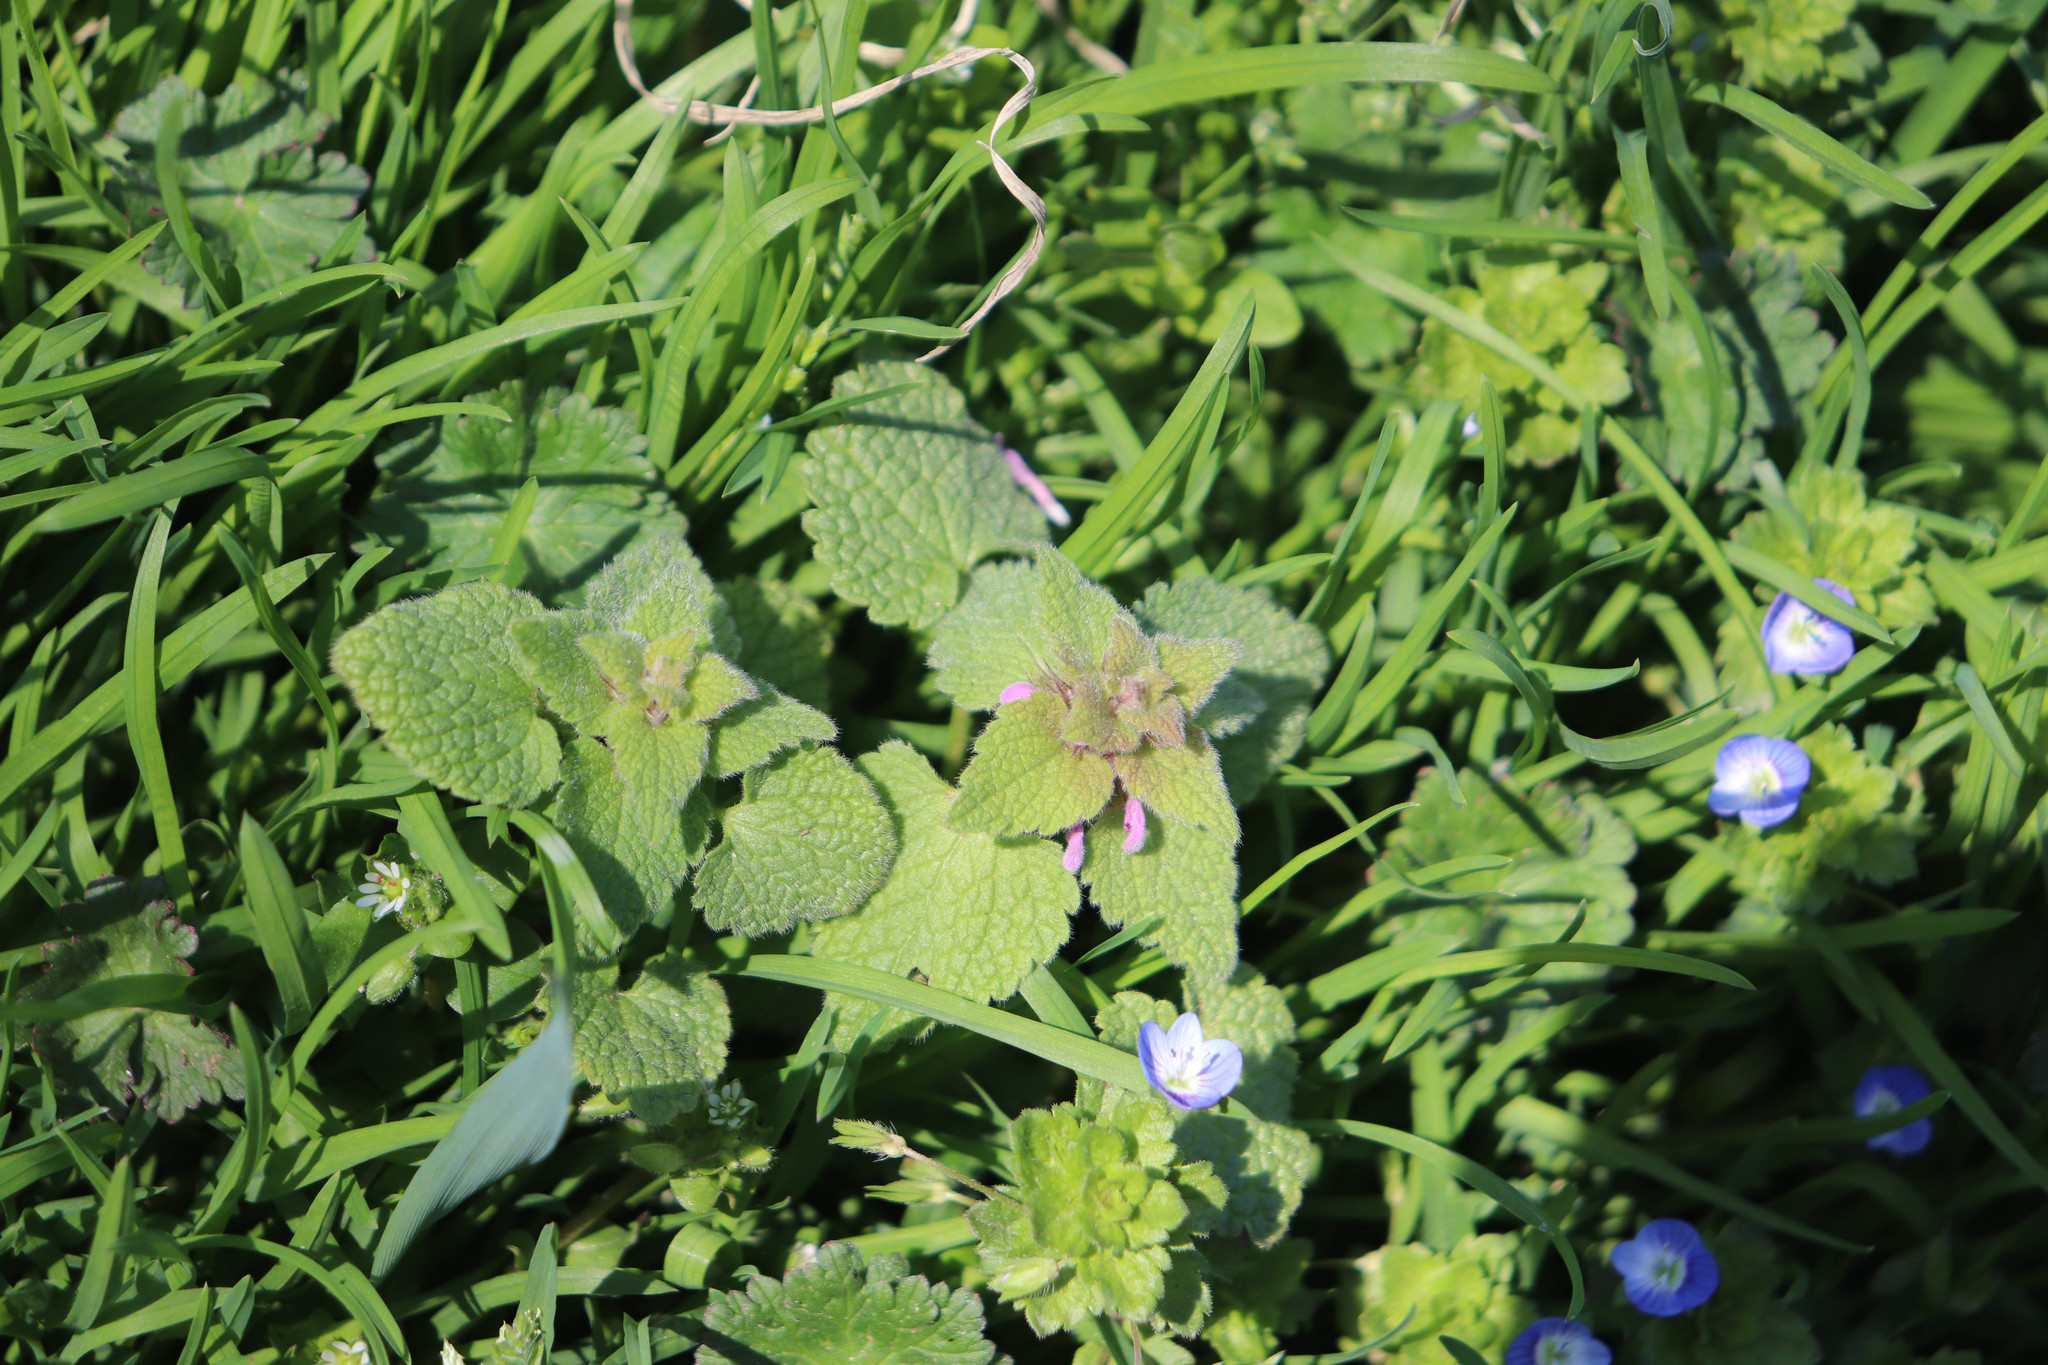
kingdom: Plantae
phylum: Tracheophyta
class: Magnoliopsida
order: Lamiales
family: Lamiaceae
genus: Lamium
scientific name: Lamium purpureum
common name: Red dead-nettle
